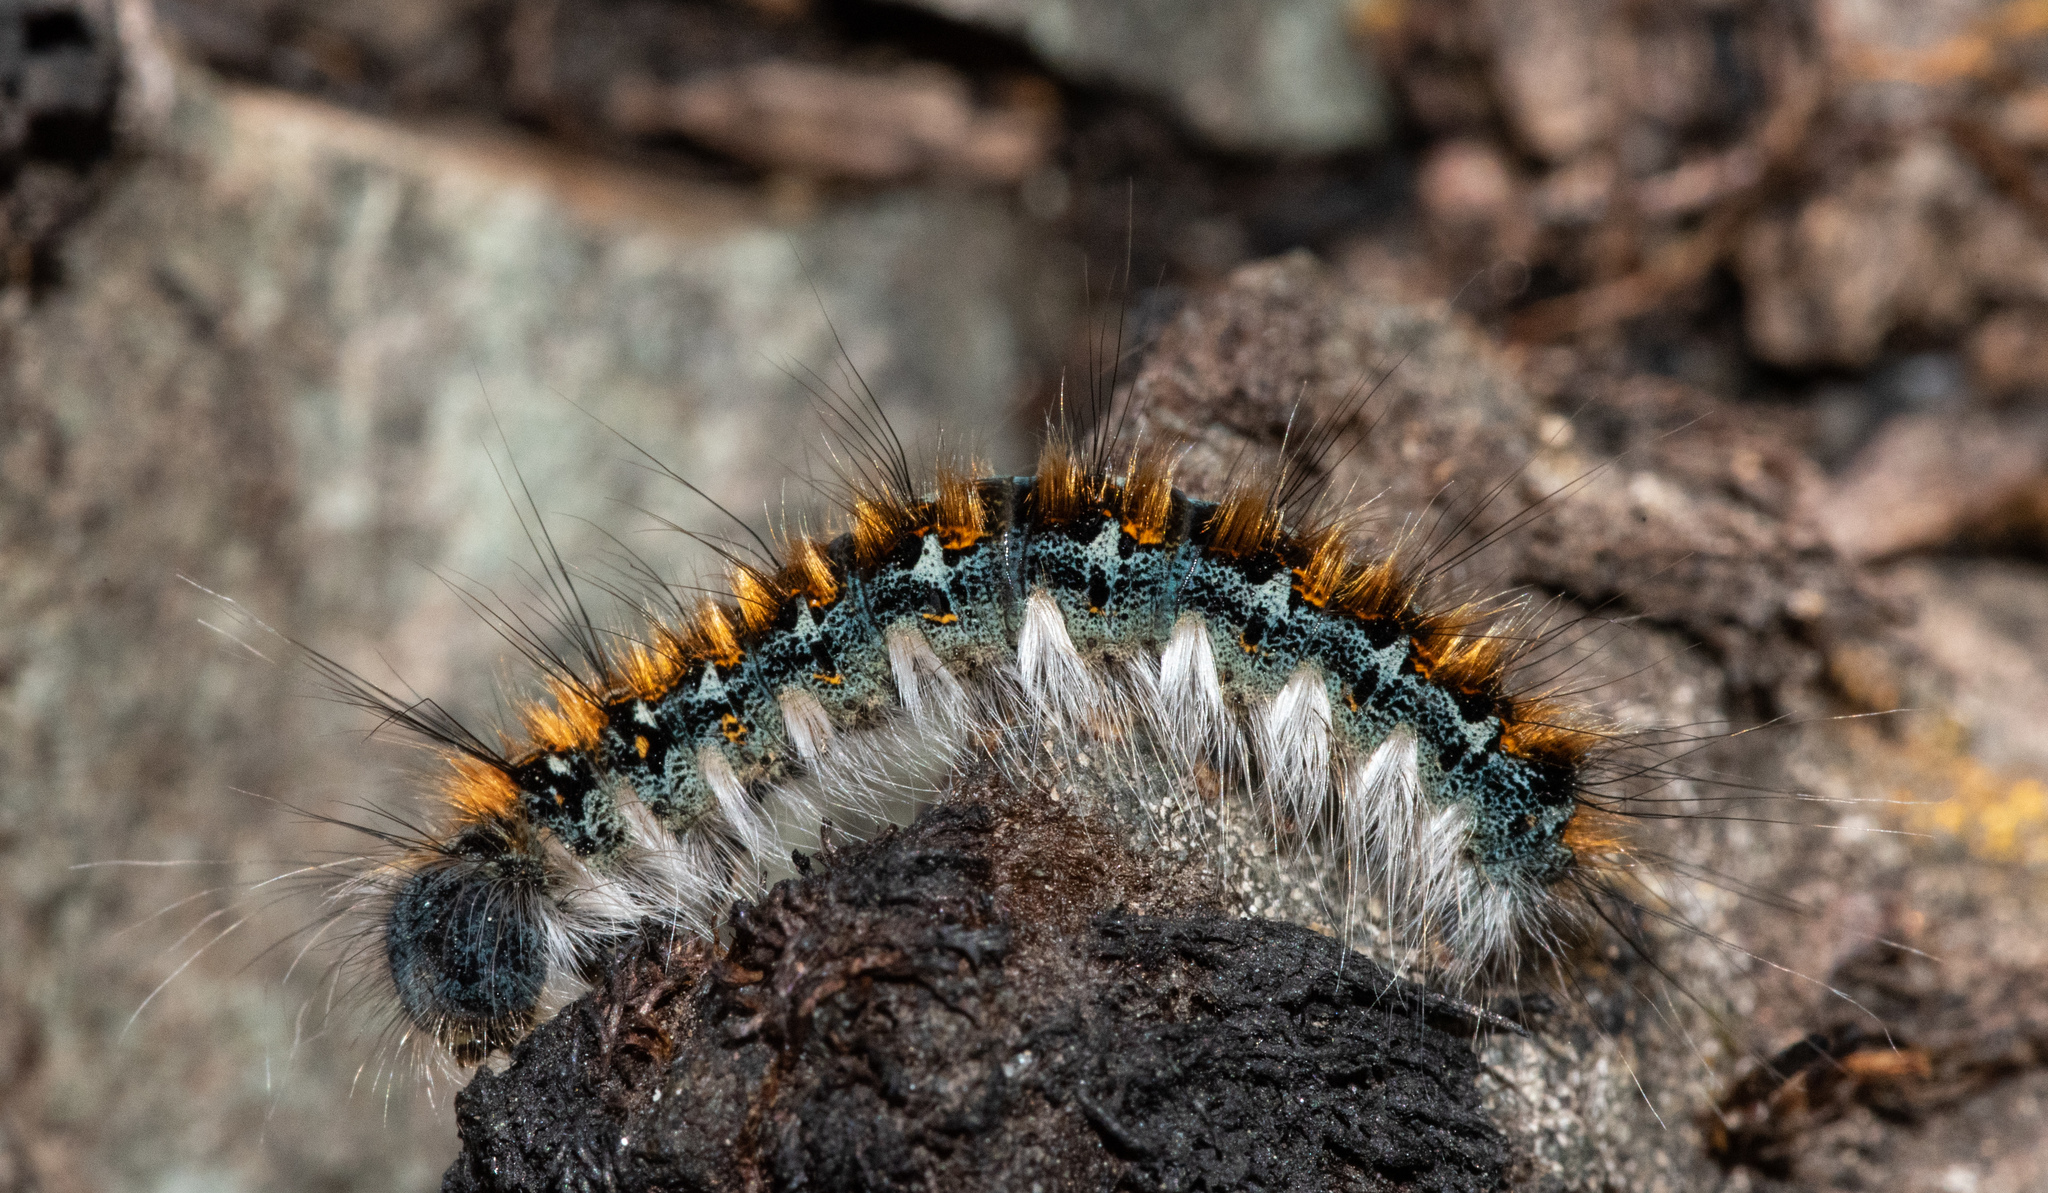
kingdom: Animalia
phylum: Arthropoda
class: Insecta
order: Lepidoptera
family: Lasiocampidae
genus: Malacosoma
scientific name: Malacosoma constricta
